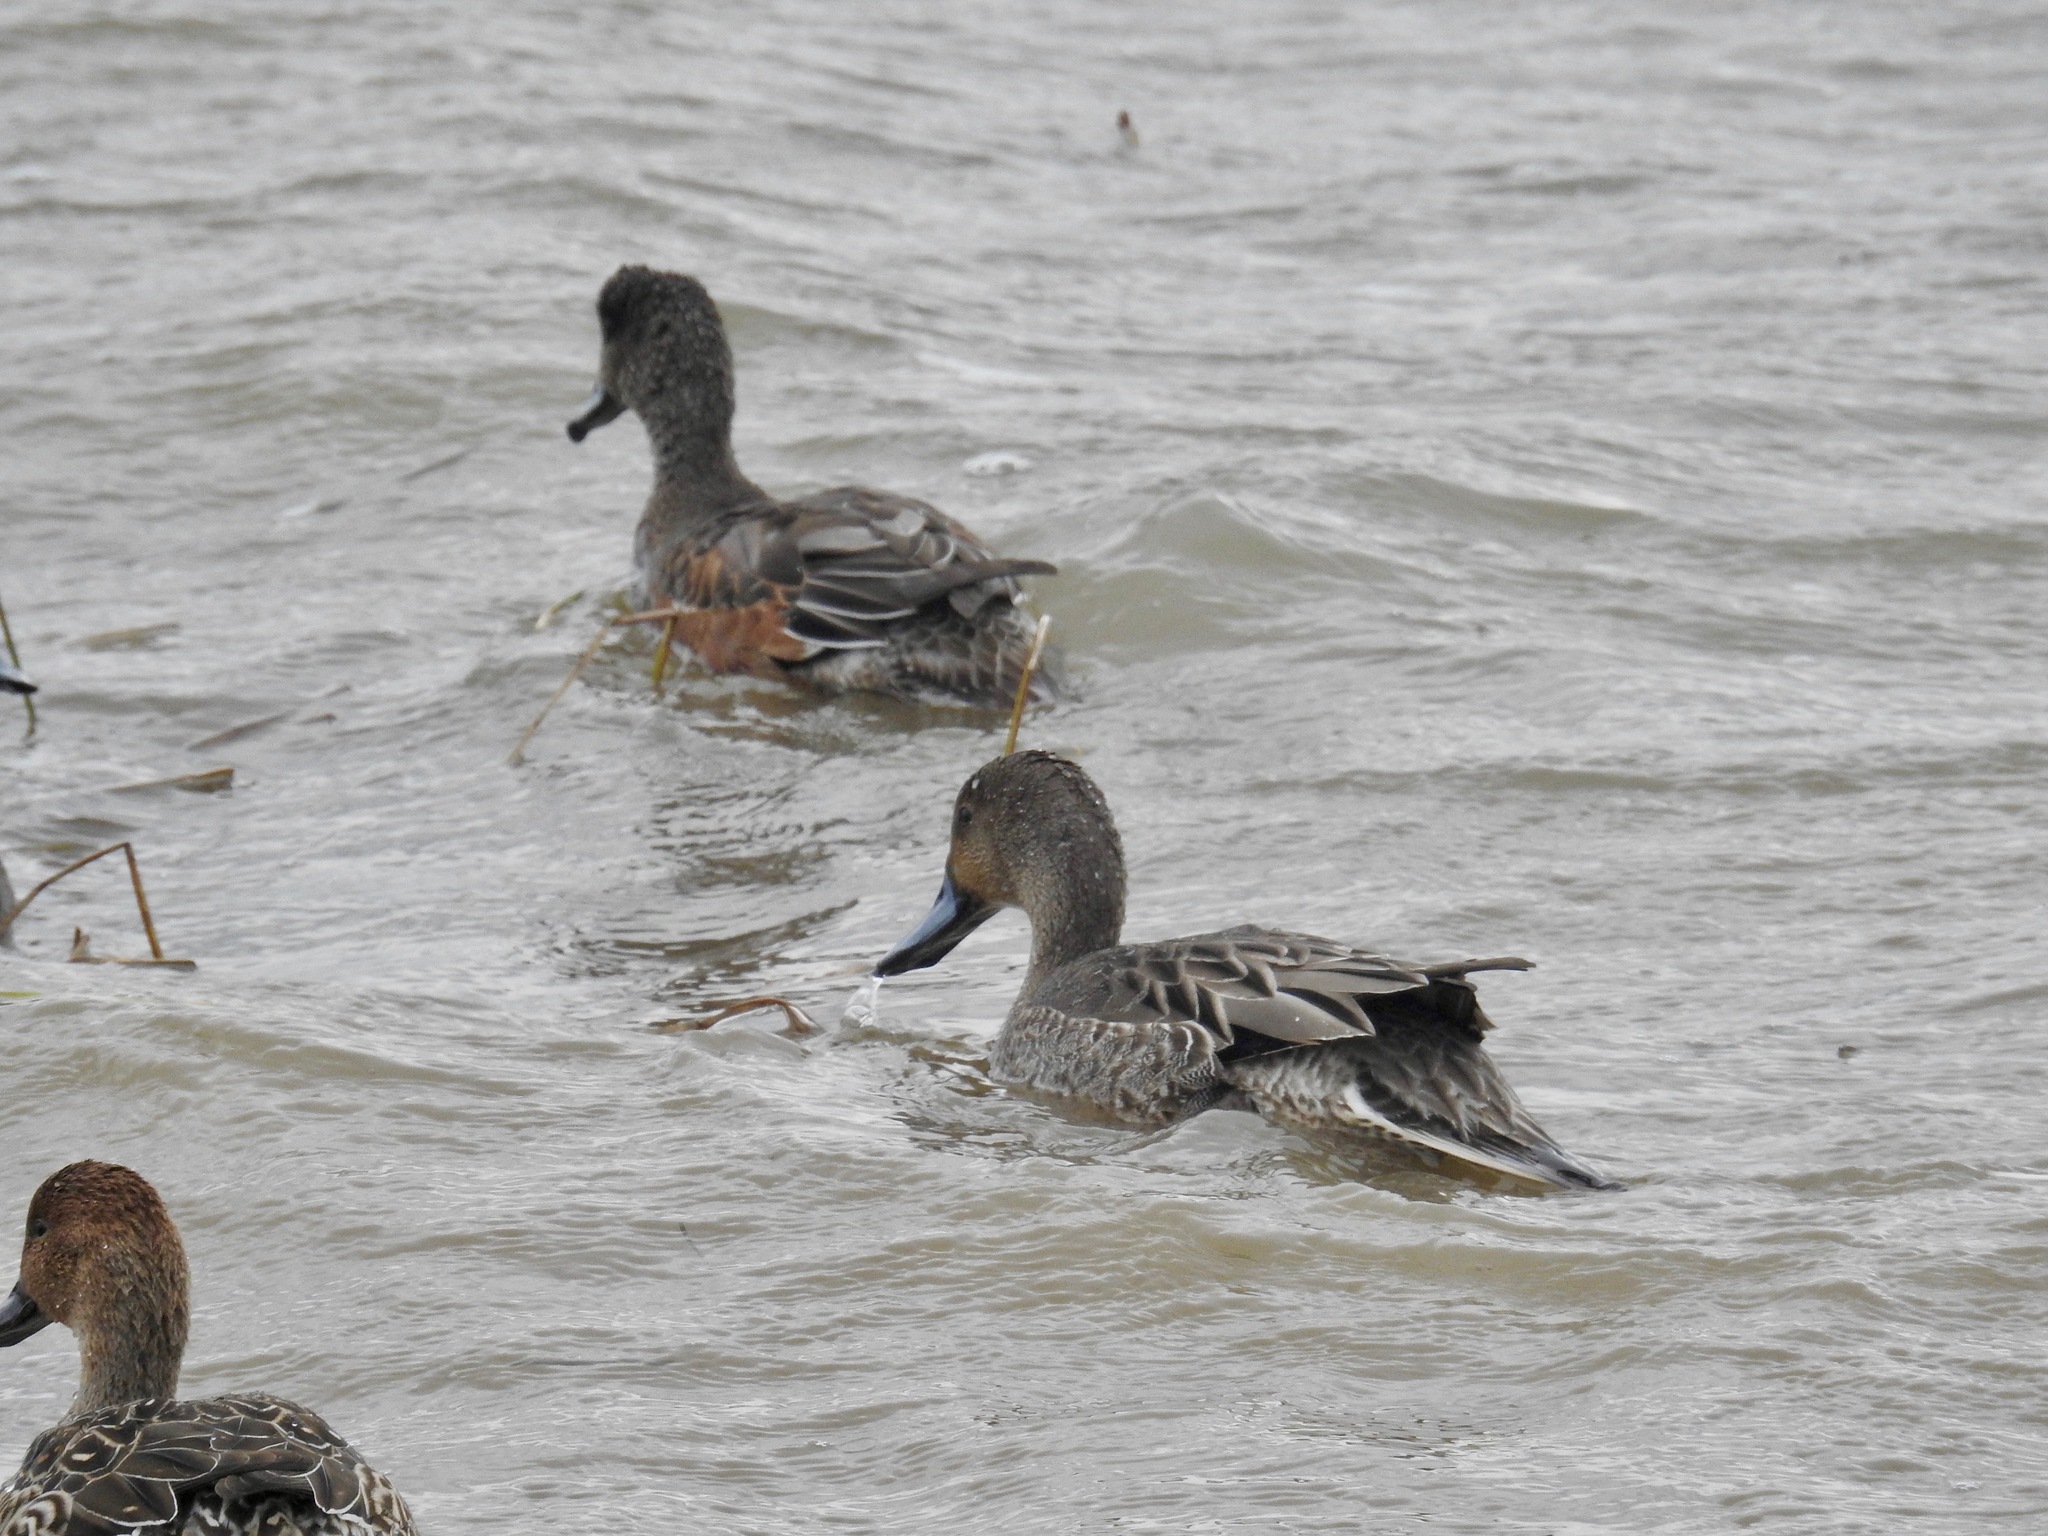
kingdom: Animalia
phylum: Chordata
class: Aves
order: Anseriformes
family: Anatidae
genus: Anas
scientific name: Anas acuta
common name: Northern pintail
